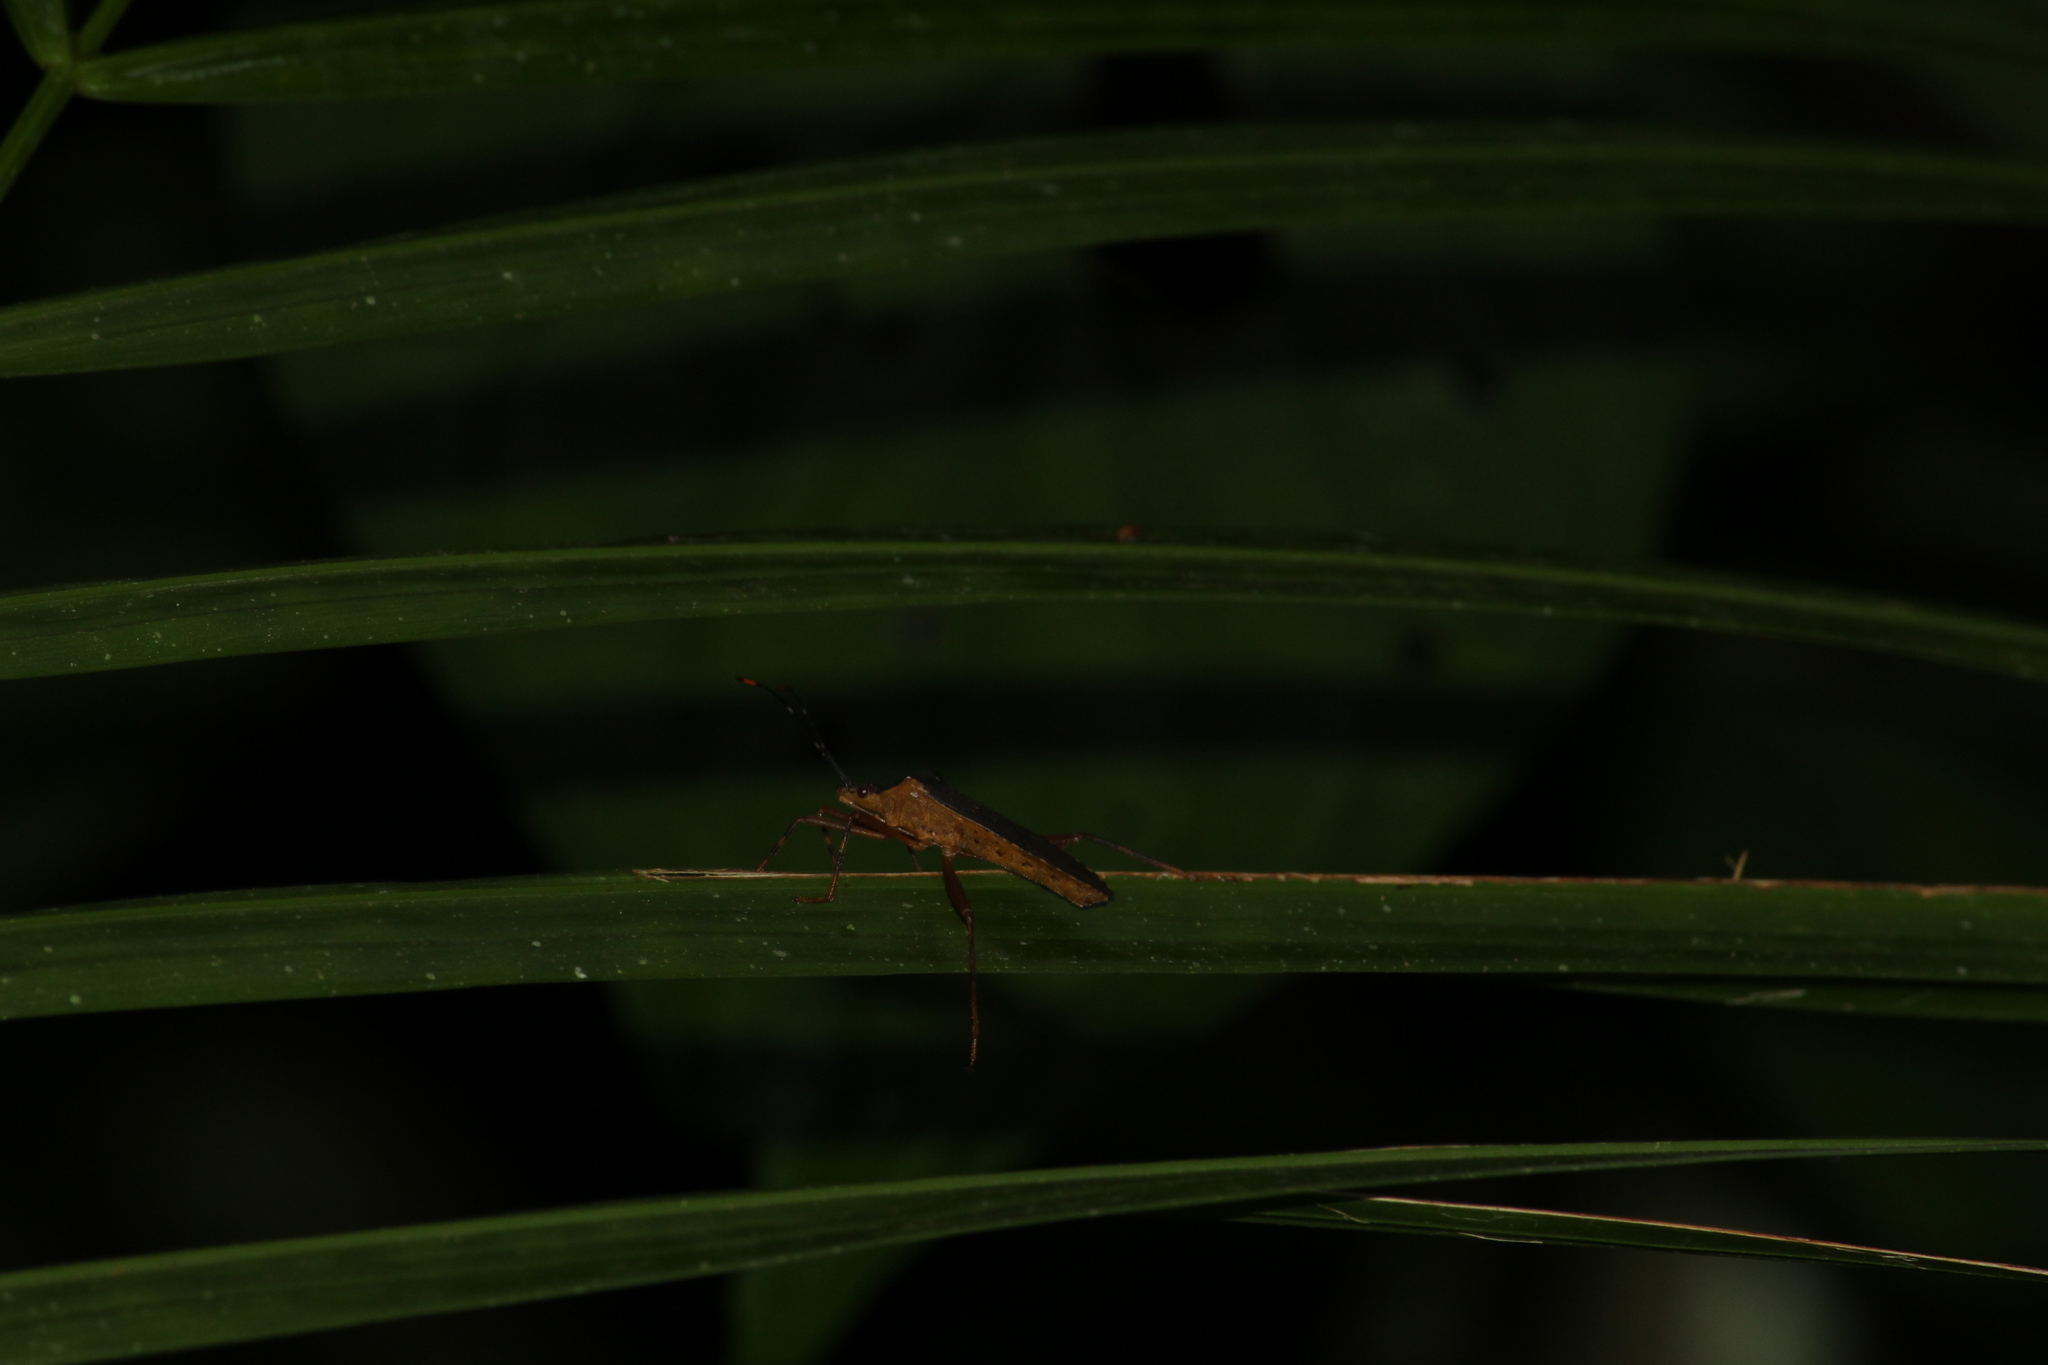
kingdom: Animalia
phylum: Arthropoda
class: Insecta
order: Hemiptera
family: Coreidae
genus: Leptoscelis
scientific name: Leptoscelis elongator
